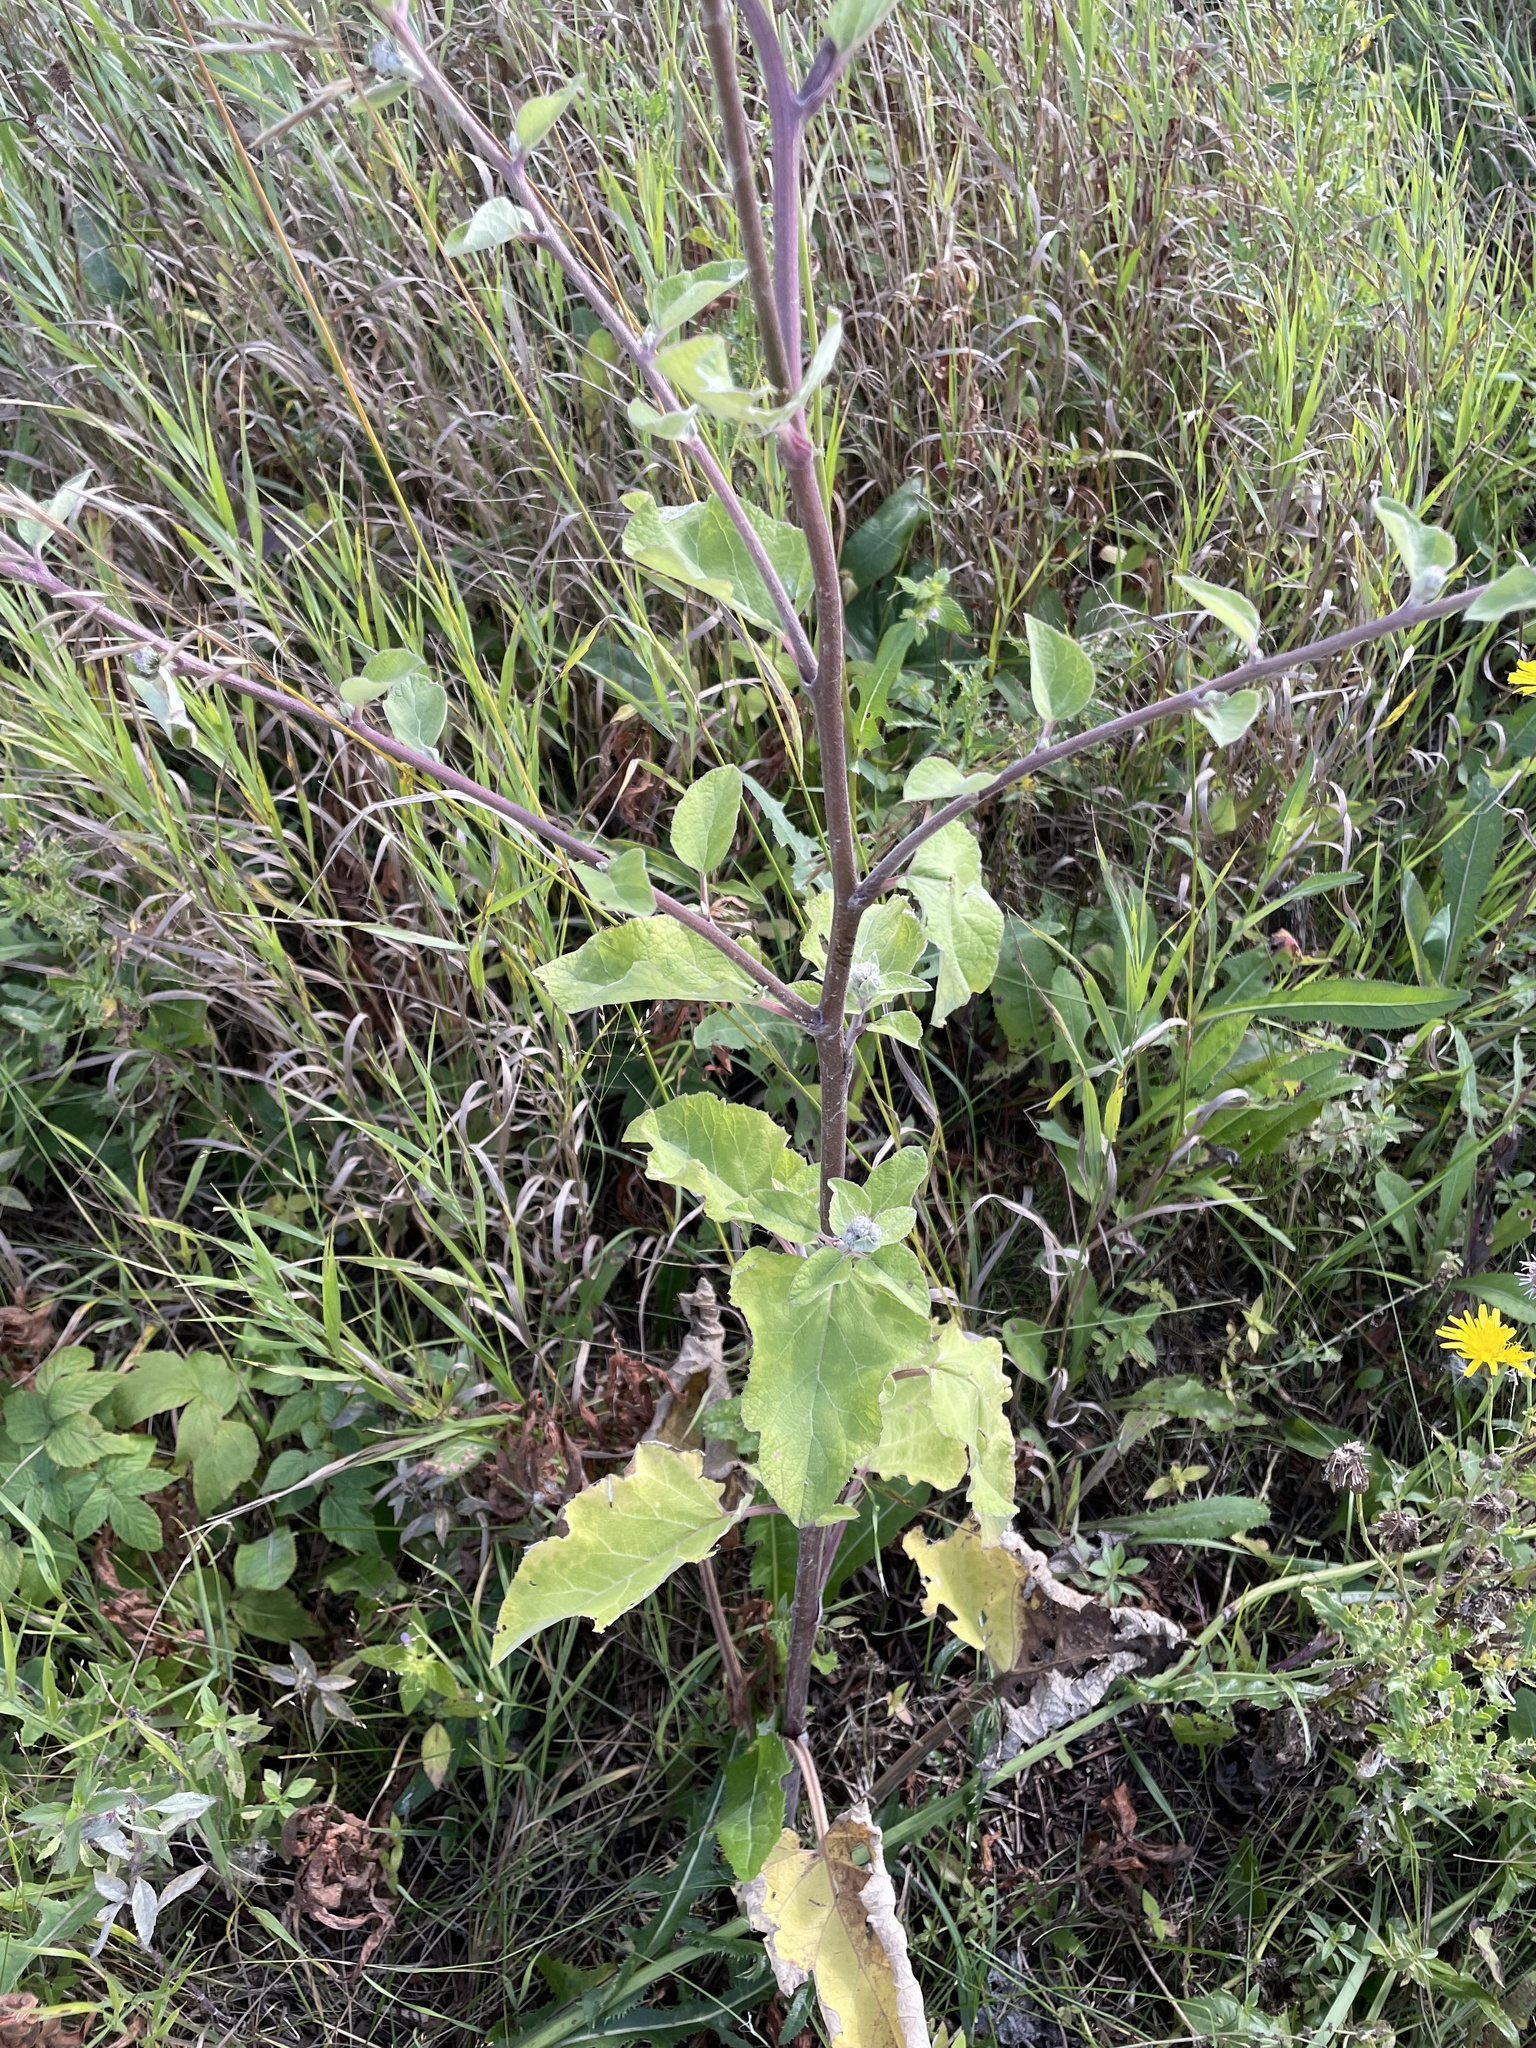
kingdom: Plantae
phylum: Tracheophyta
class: Magnoliopsida
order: Asterales
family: Asteraceae
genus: Arctium
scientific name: Arctium tomentosum
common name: Woolly burdock
